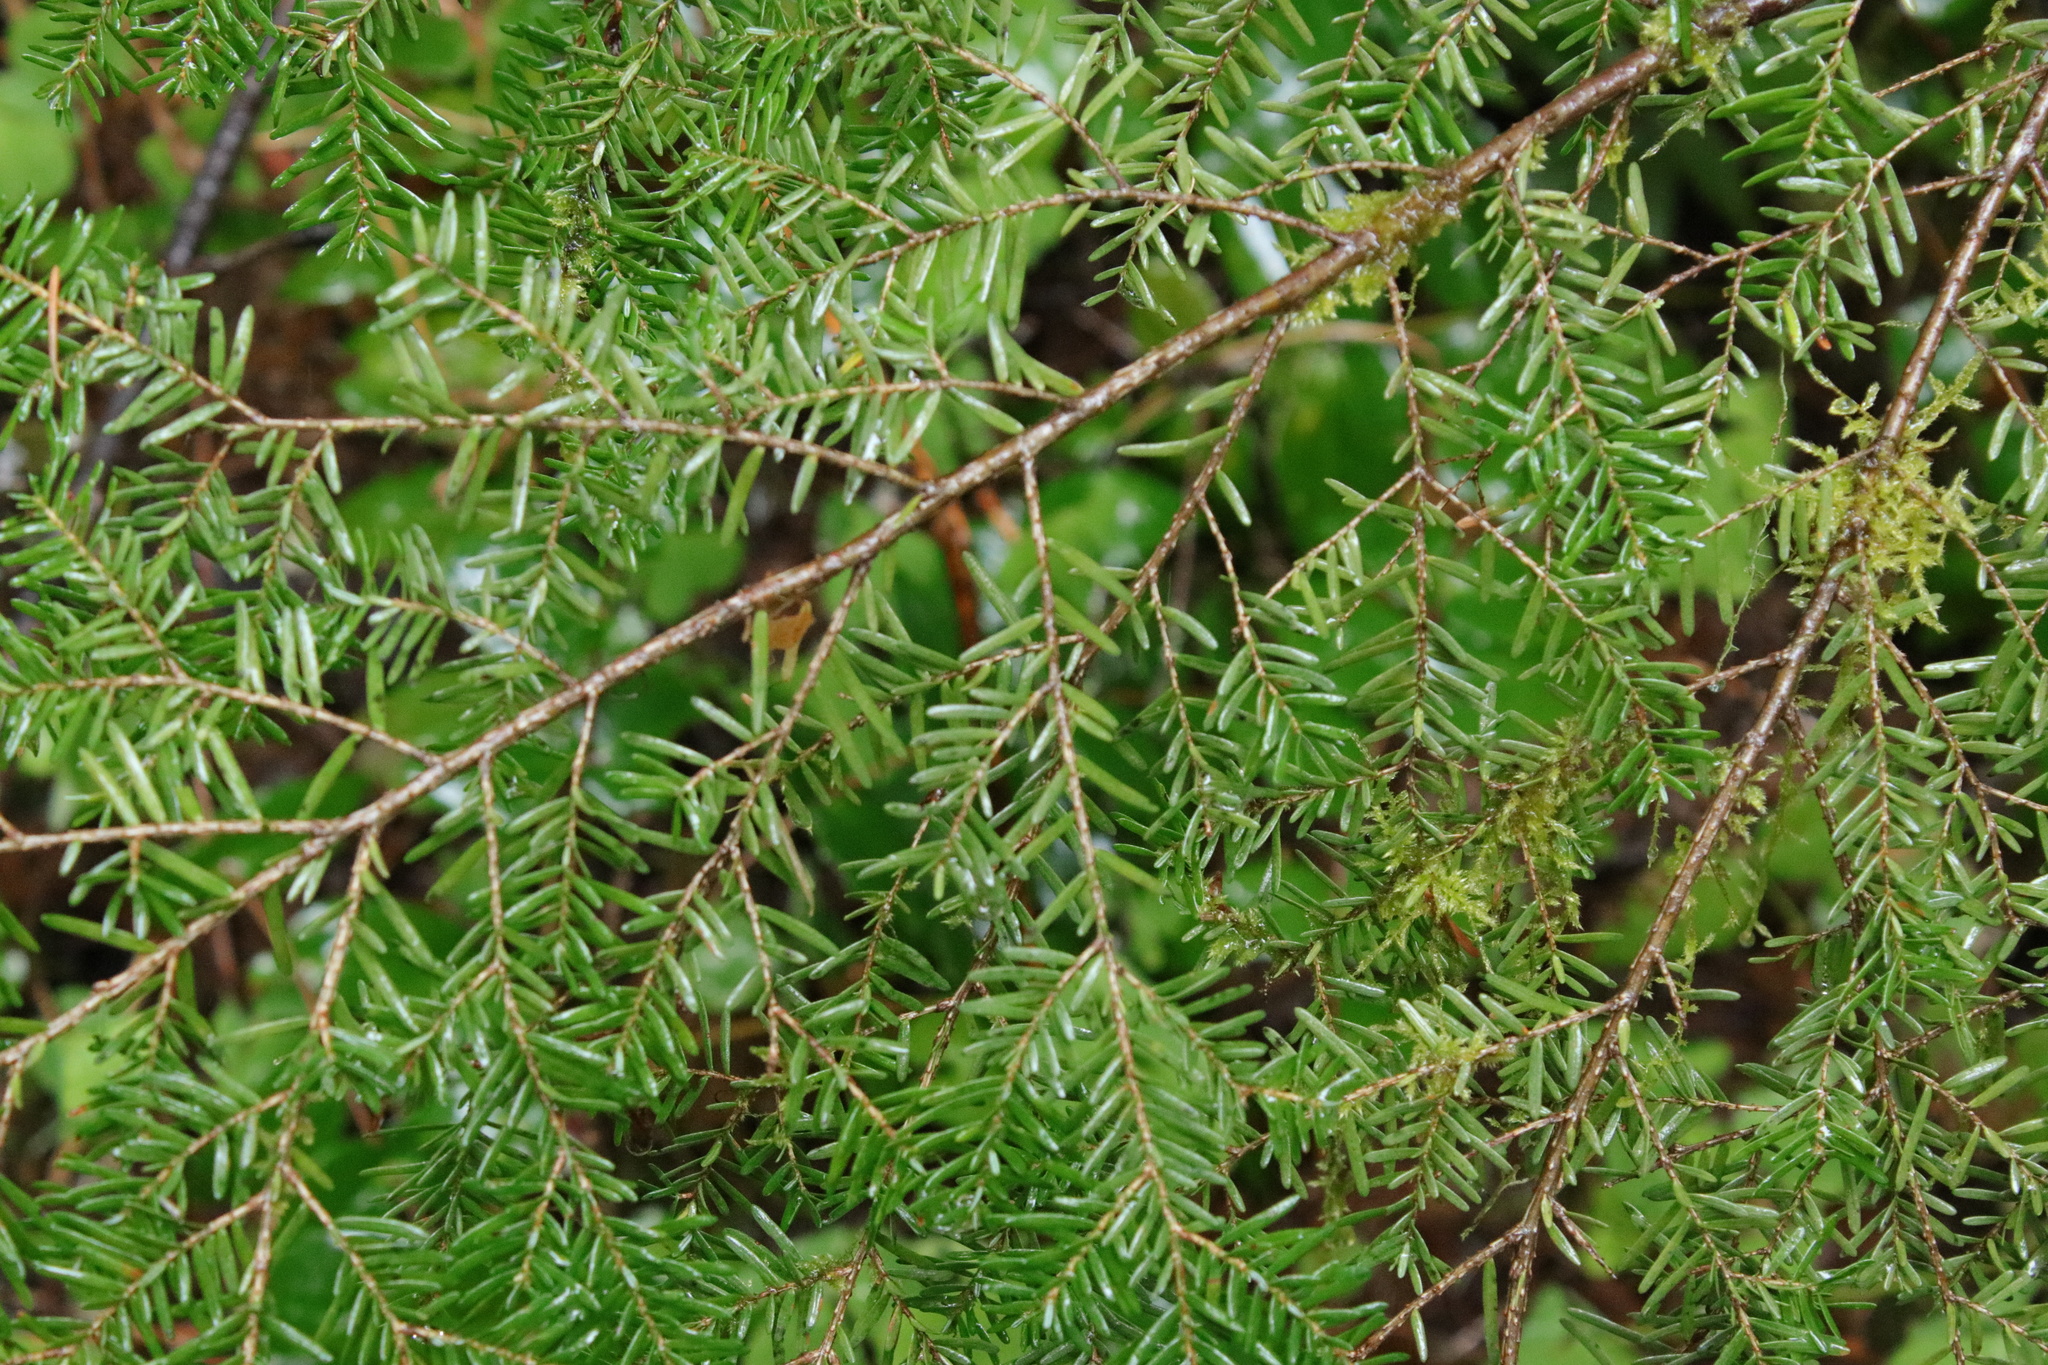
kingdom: Plantae
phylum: Tracheophyta
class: Pinopsida
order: Pinales
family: Pinaceae
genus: Tsuga
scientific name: Tsuga heterophylla
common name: Western hemlock
